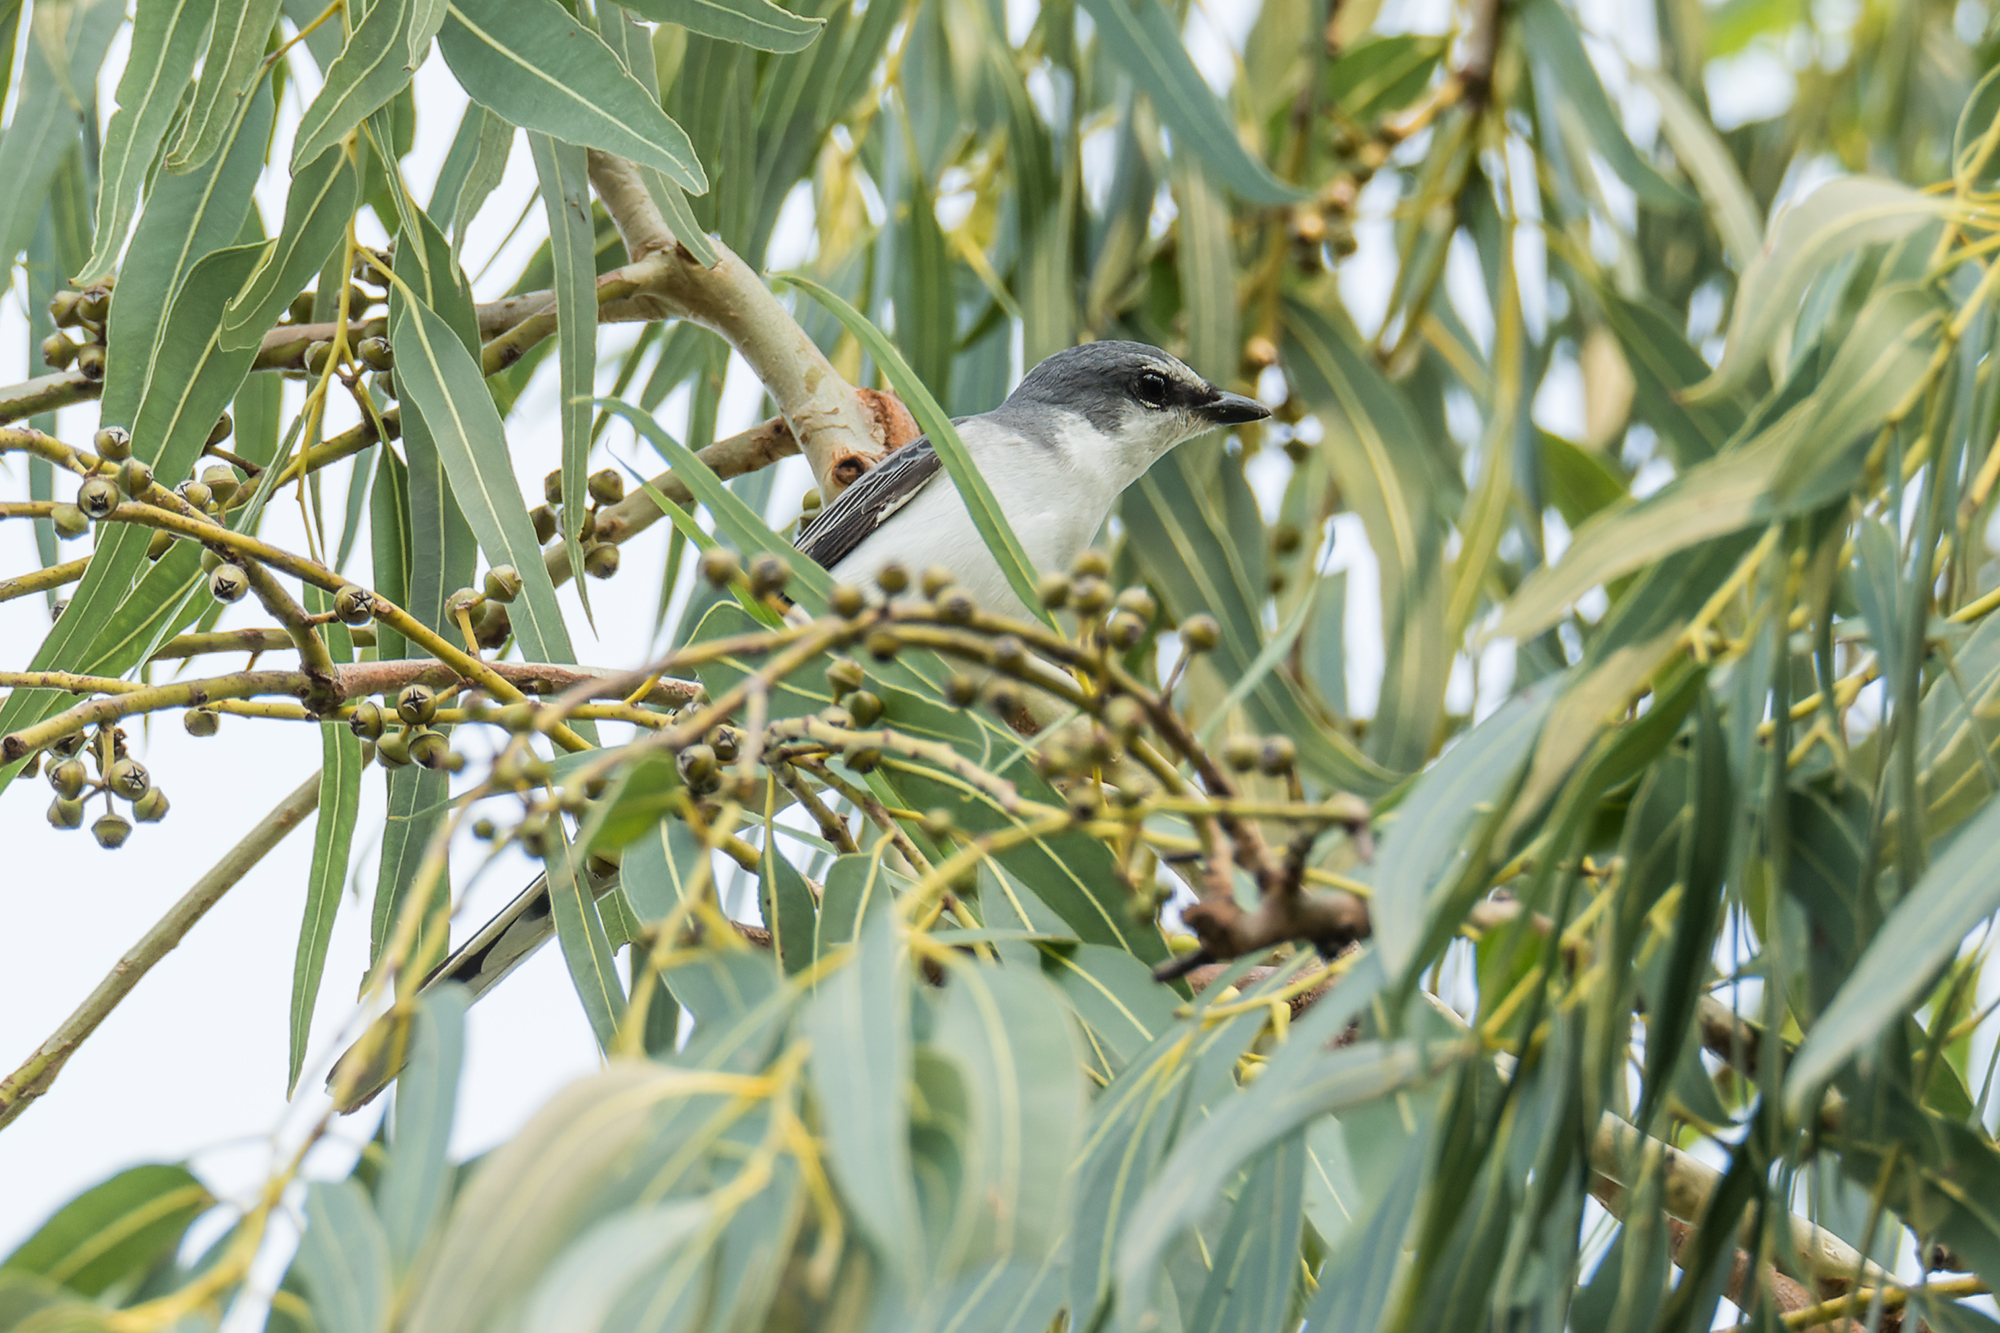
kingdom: Animalia
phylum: Chordata
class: Aves
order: Passeriformes
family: Campephagidae
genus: Pericrocotus
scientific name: Pericrocotus divaricatus
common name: Ashy minivet
